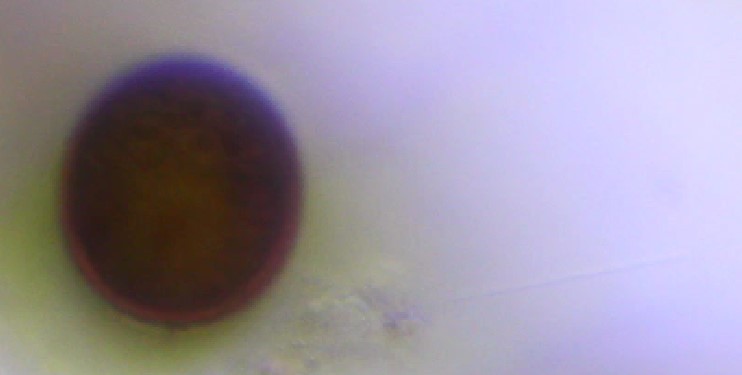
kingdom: Protozoa
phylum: Euglenozoa
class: Euglenoidea
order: Euglenida
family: Euglenaceae
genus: Trachelomonas
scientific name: Trachelomonas
